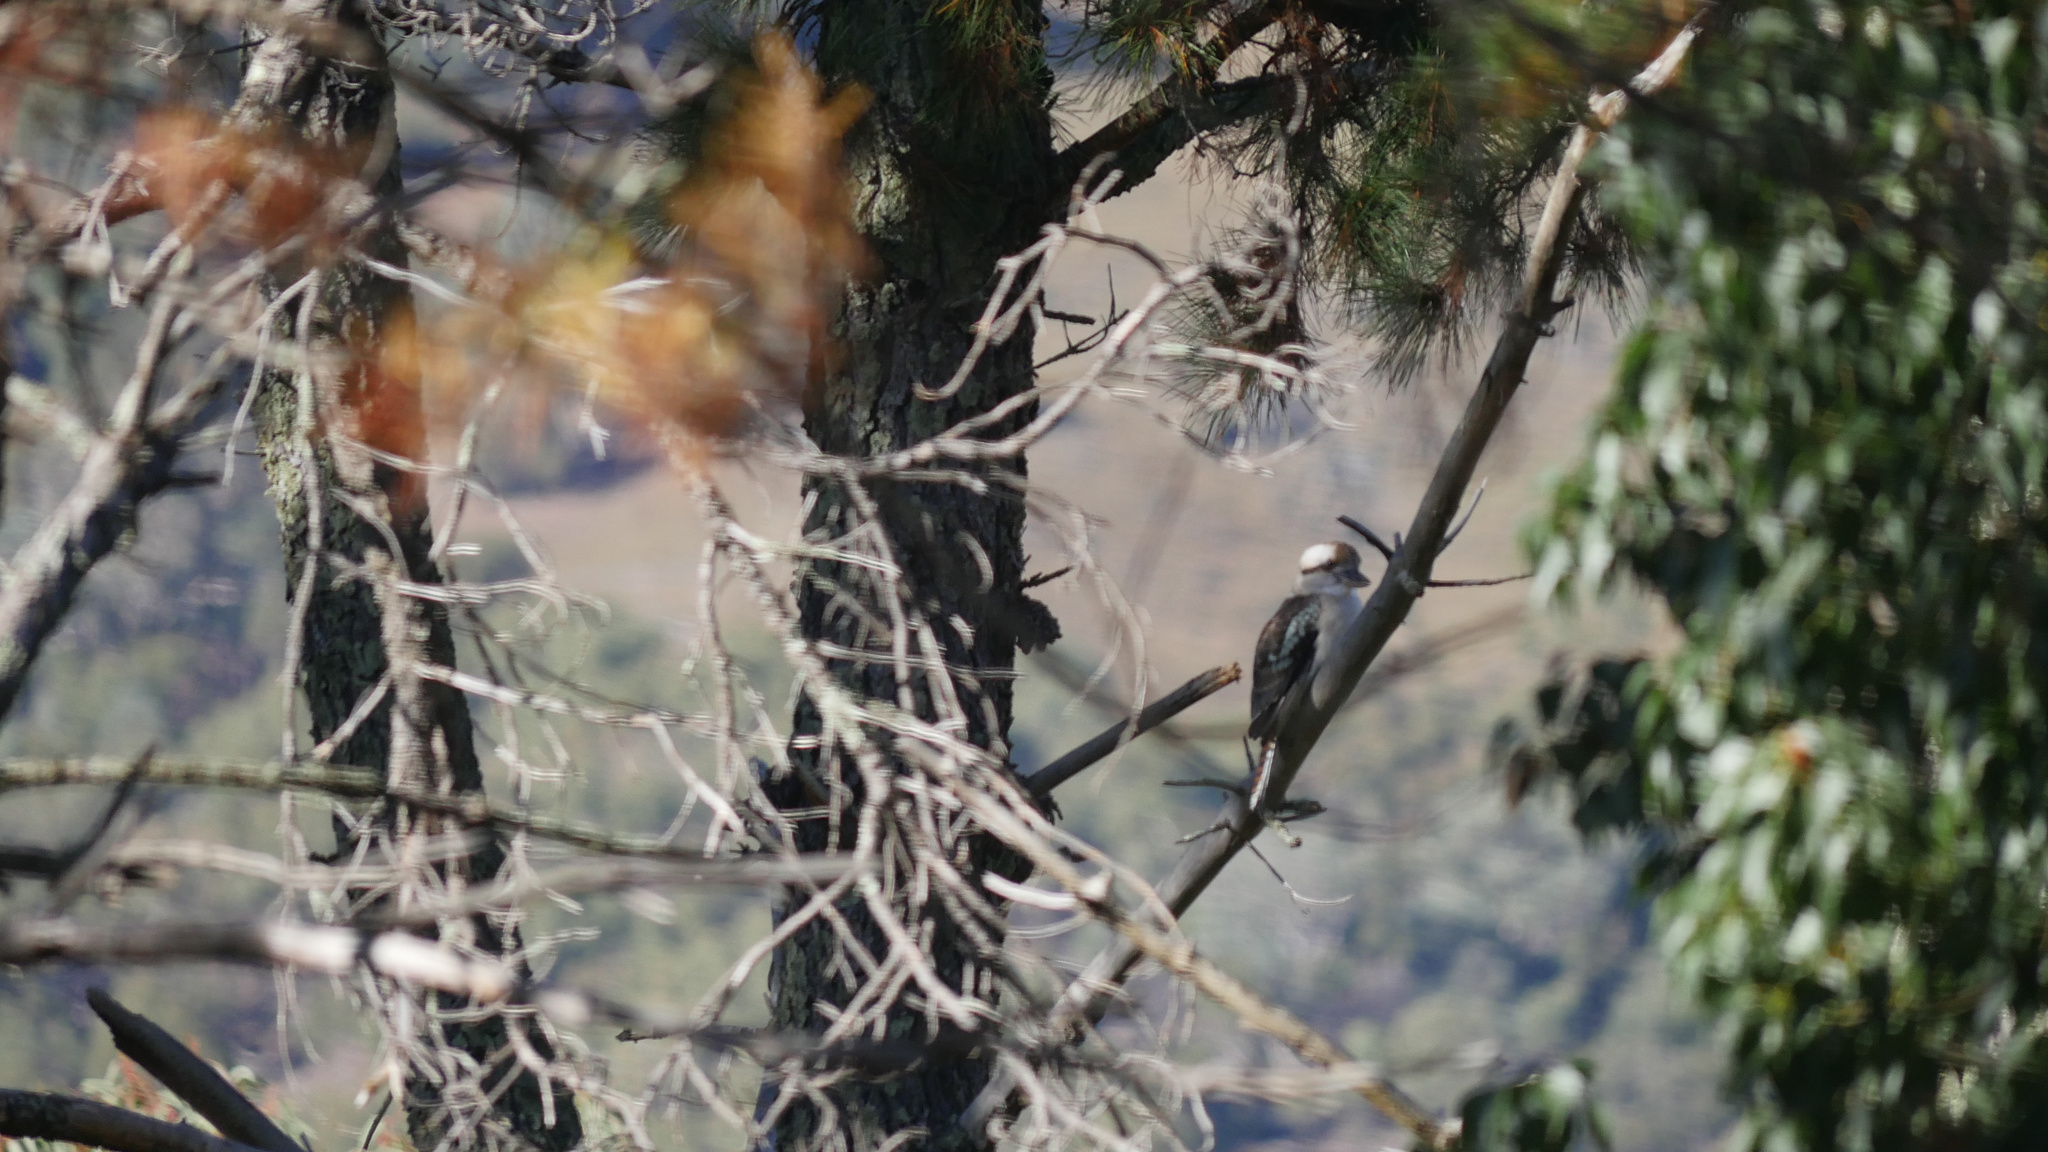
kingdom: Animalia
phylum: Chordata
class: Aves
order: Coraciiformes
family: Alcedinidae
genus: Dacelo
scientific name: Dacelo novaeguineae
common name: Laughing kookaburra
